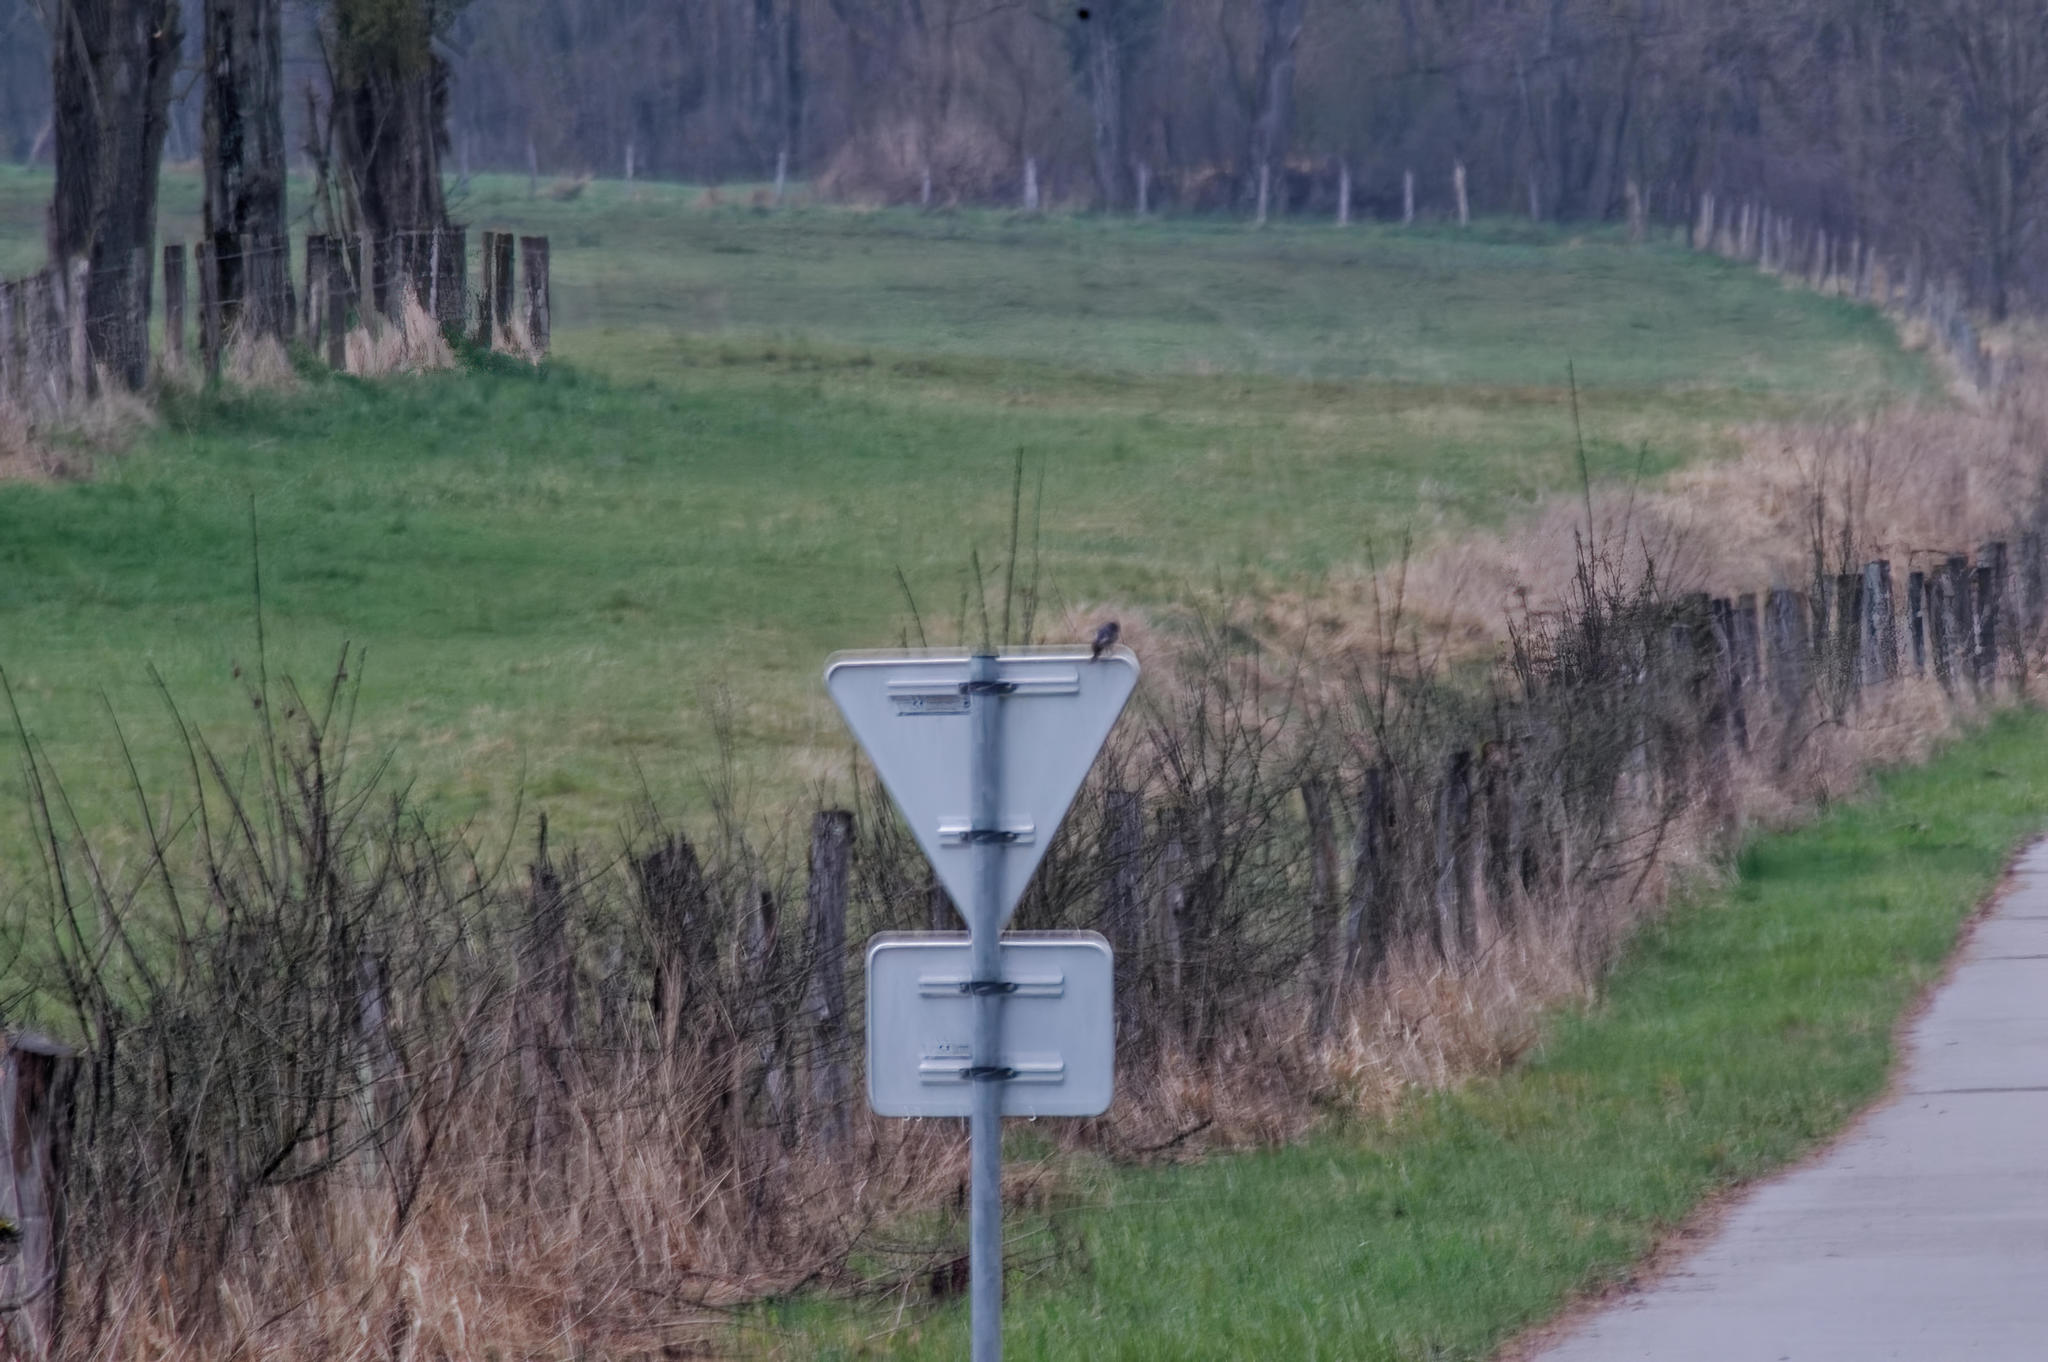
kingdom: Animalia
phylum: Chordata
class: Aves
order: Passeriformes
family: Muscicapidae
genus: Phoenicurus
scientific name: Phoenicurus ochruros
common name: Black redstart
